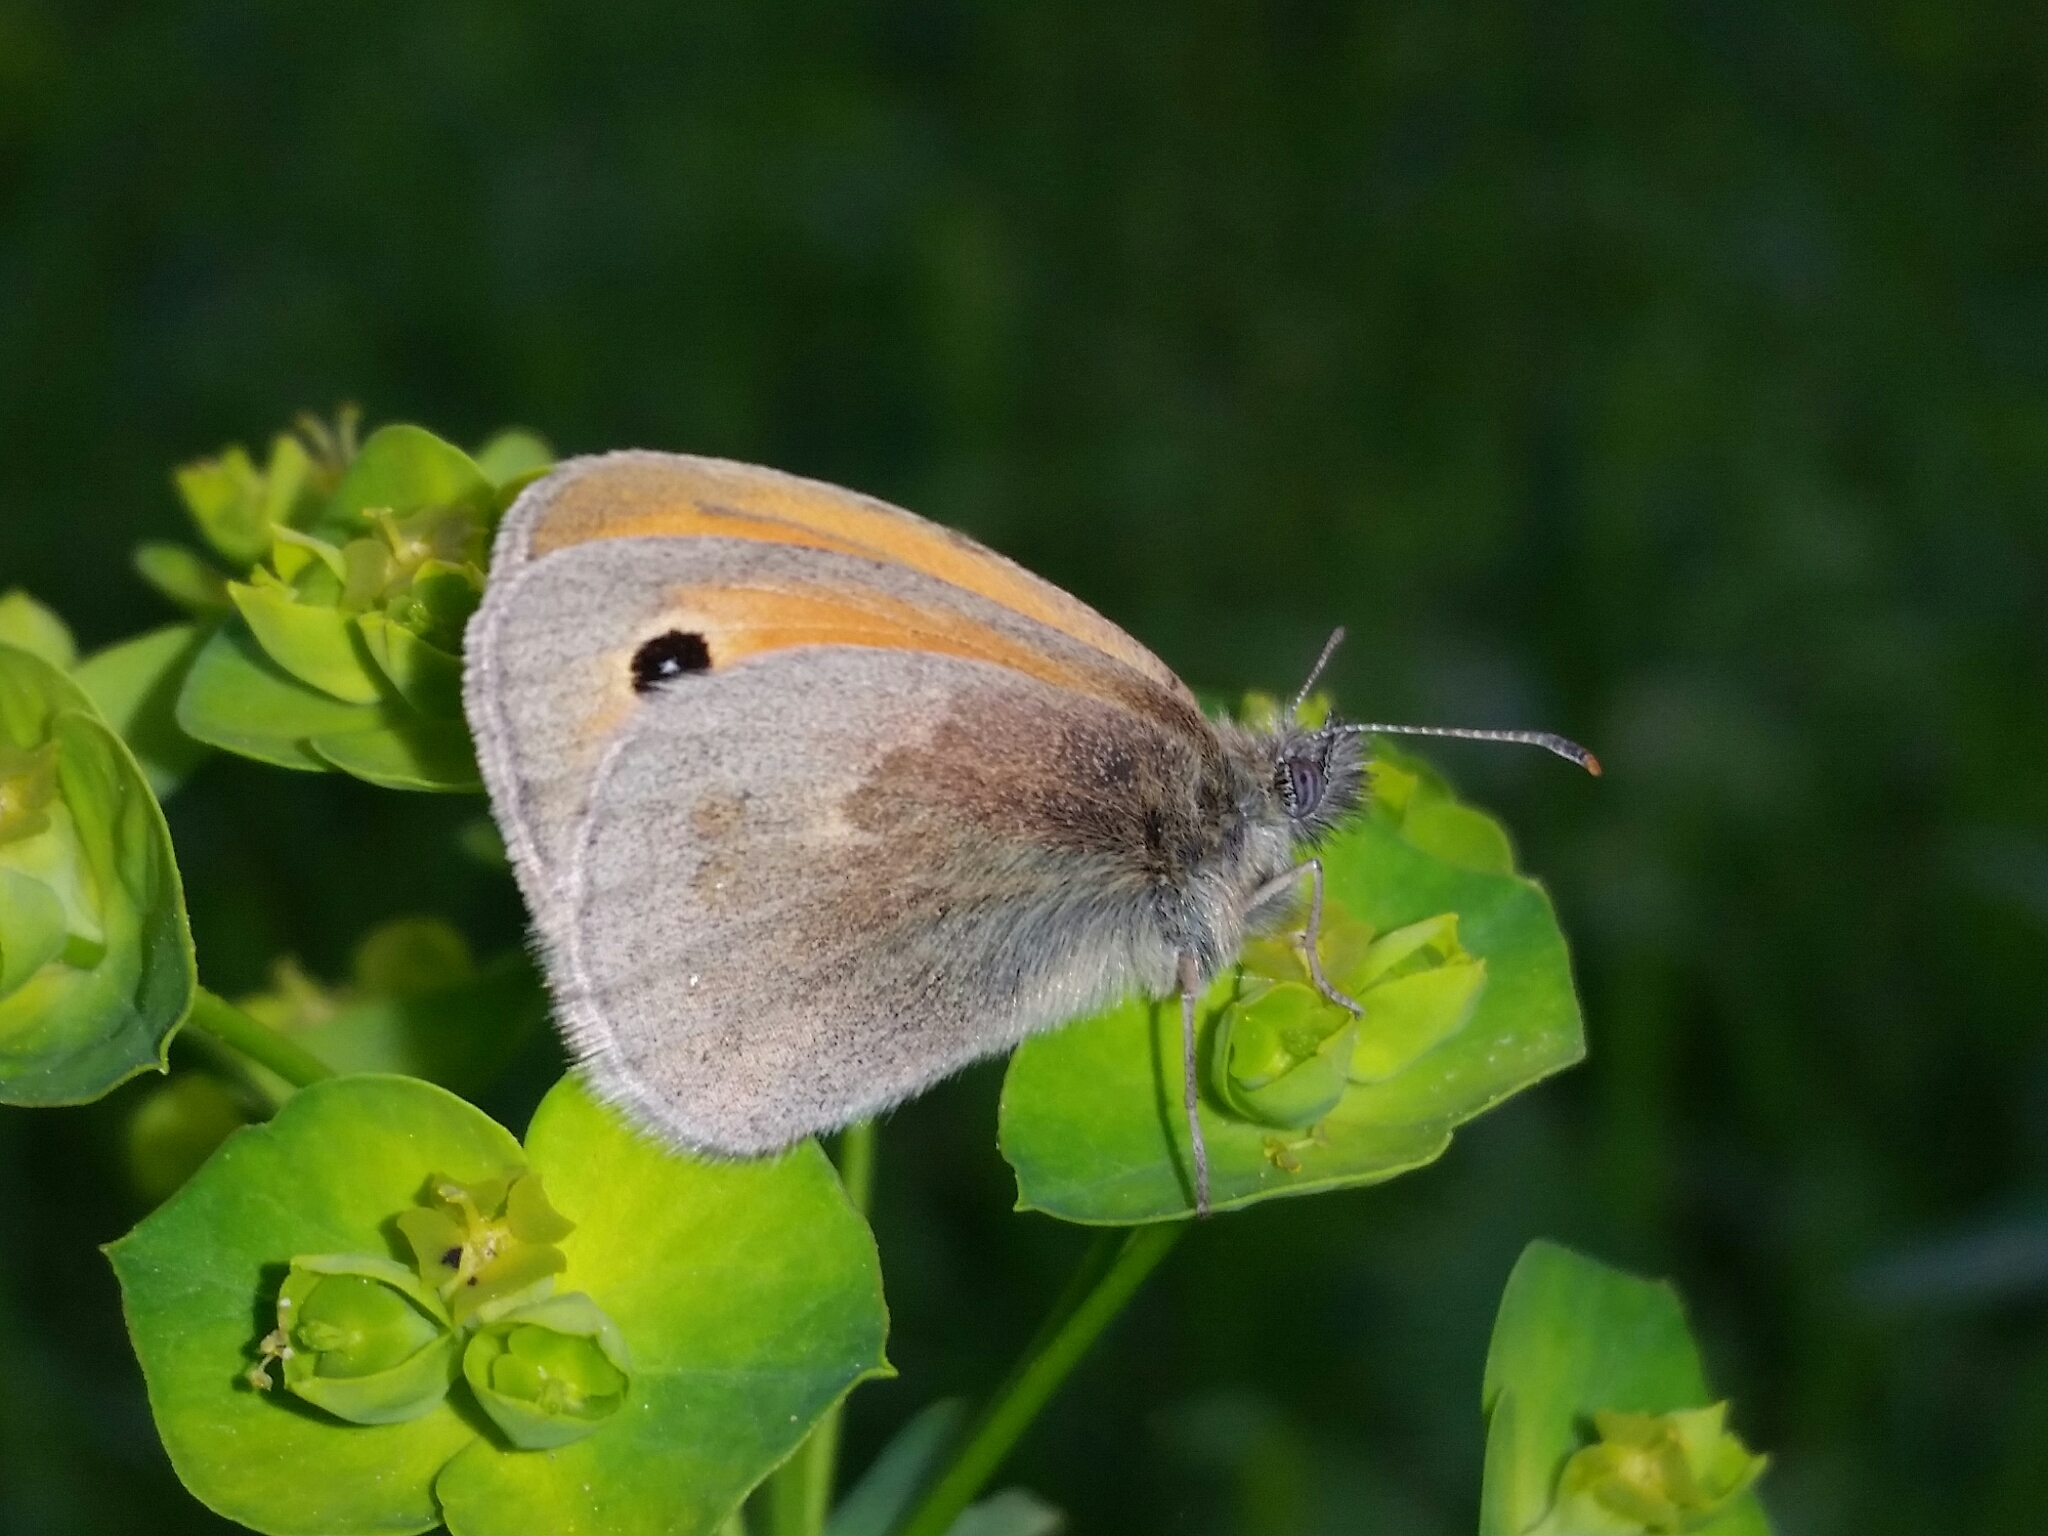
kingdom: Animalia
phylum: Arthropoda
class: Insecta
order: Lepidoptera
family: Nymphalidae
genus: Coenonympha
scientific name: Coenonympha pamphilus
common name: Small heath
